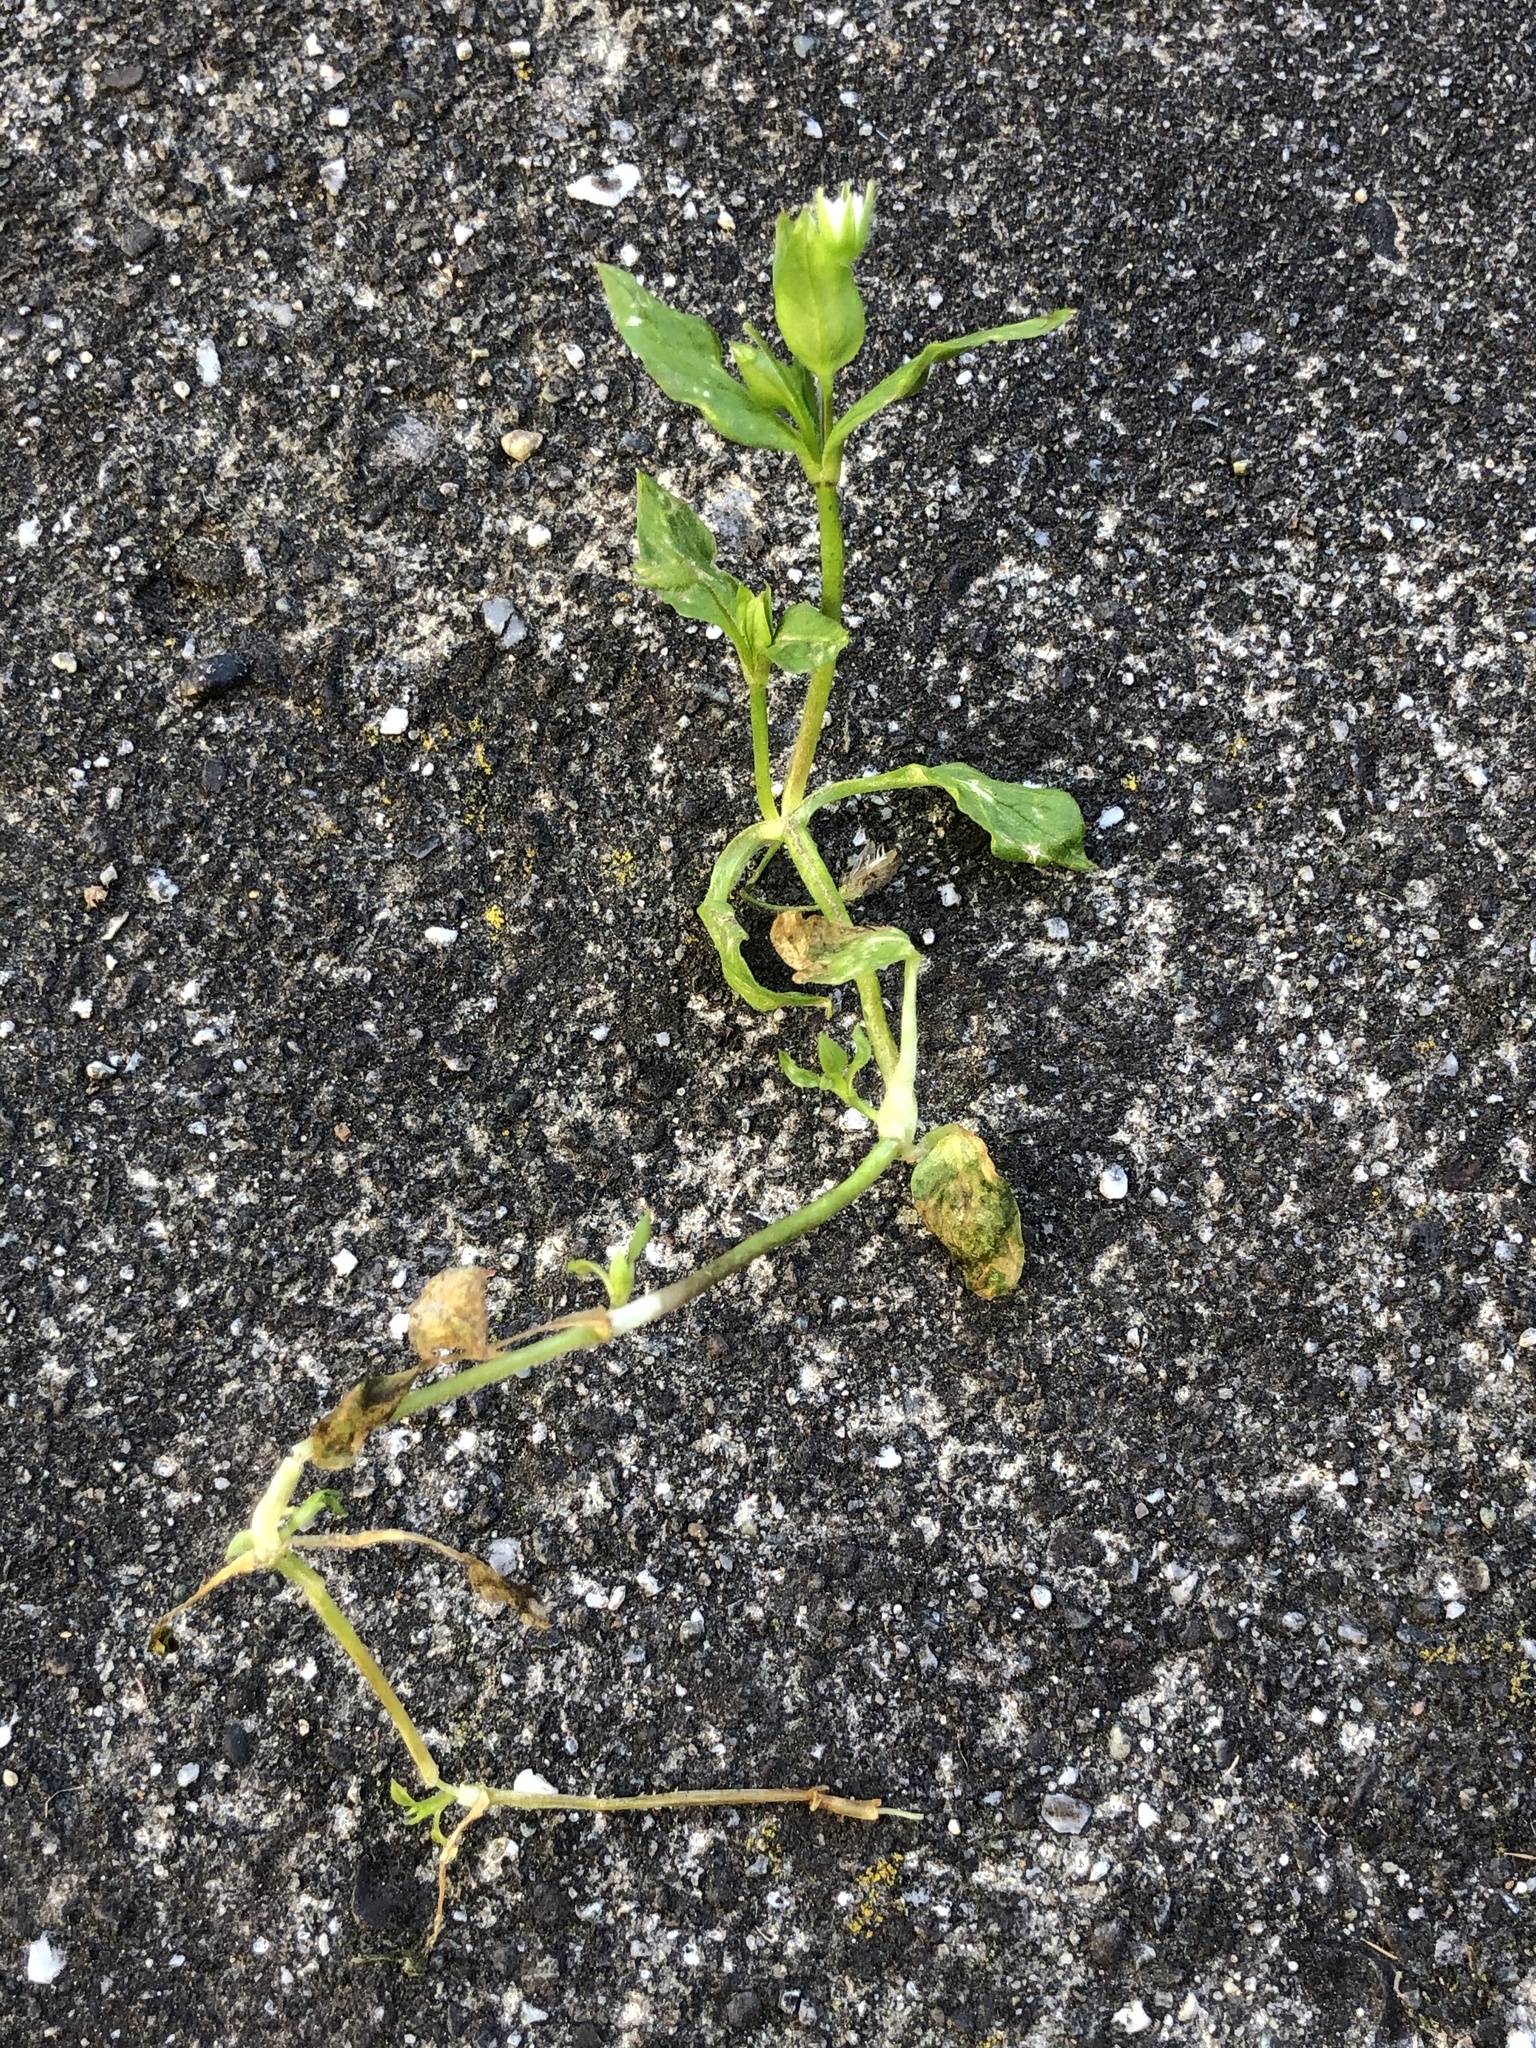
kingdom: Plantae
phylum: Tracheophyta
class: Magnoliopsida
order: Caryophyllales
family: Caryophyllaceae
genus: Stellaria
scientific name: Stellaria media
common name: Common chickweed
